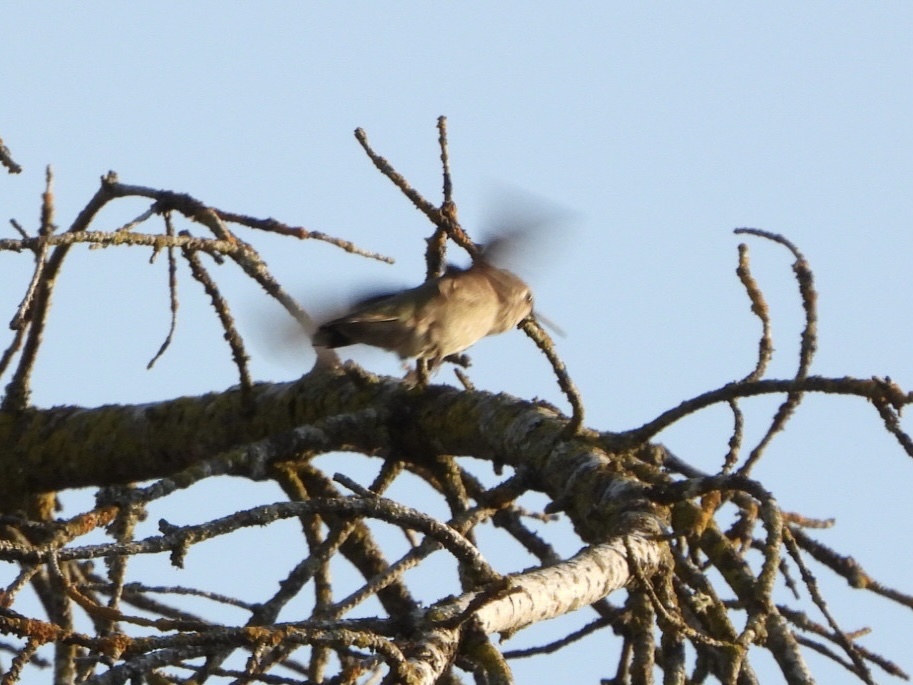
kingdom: Animalia
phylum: Chordata
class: Aves
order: Apodiformes
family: Trochilidae
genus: Calypte
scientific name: Calypte anna
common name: Anna's hummingbird
